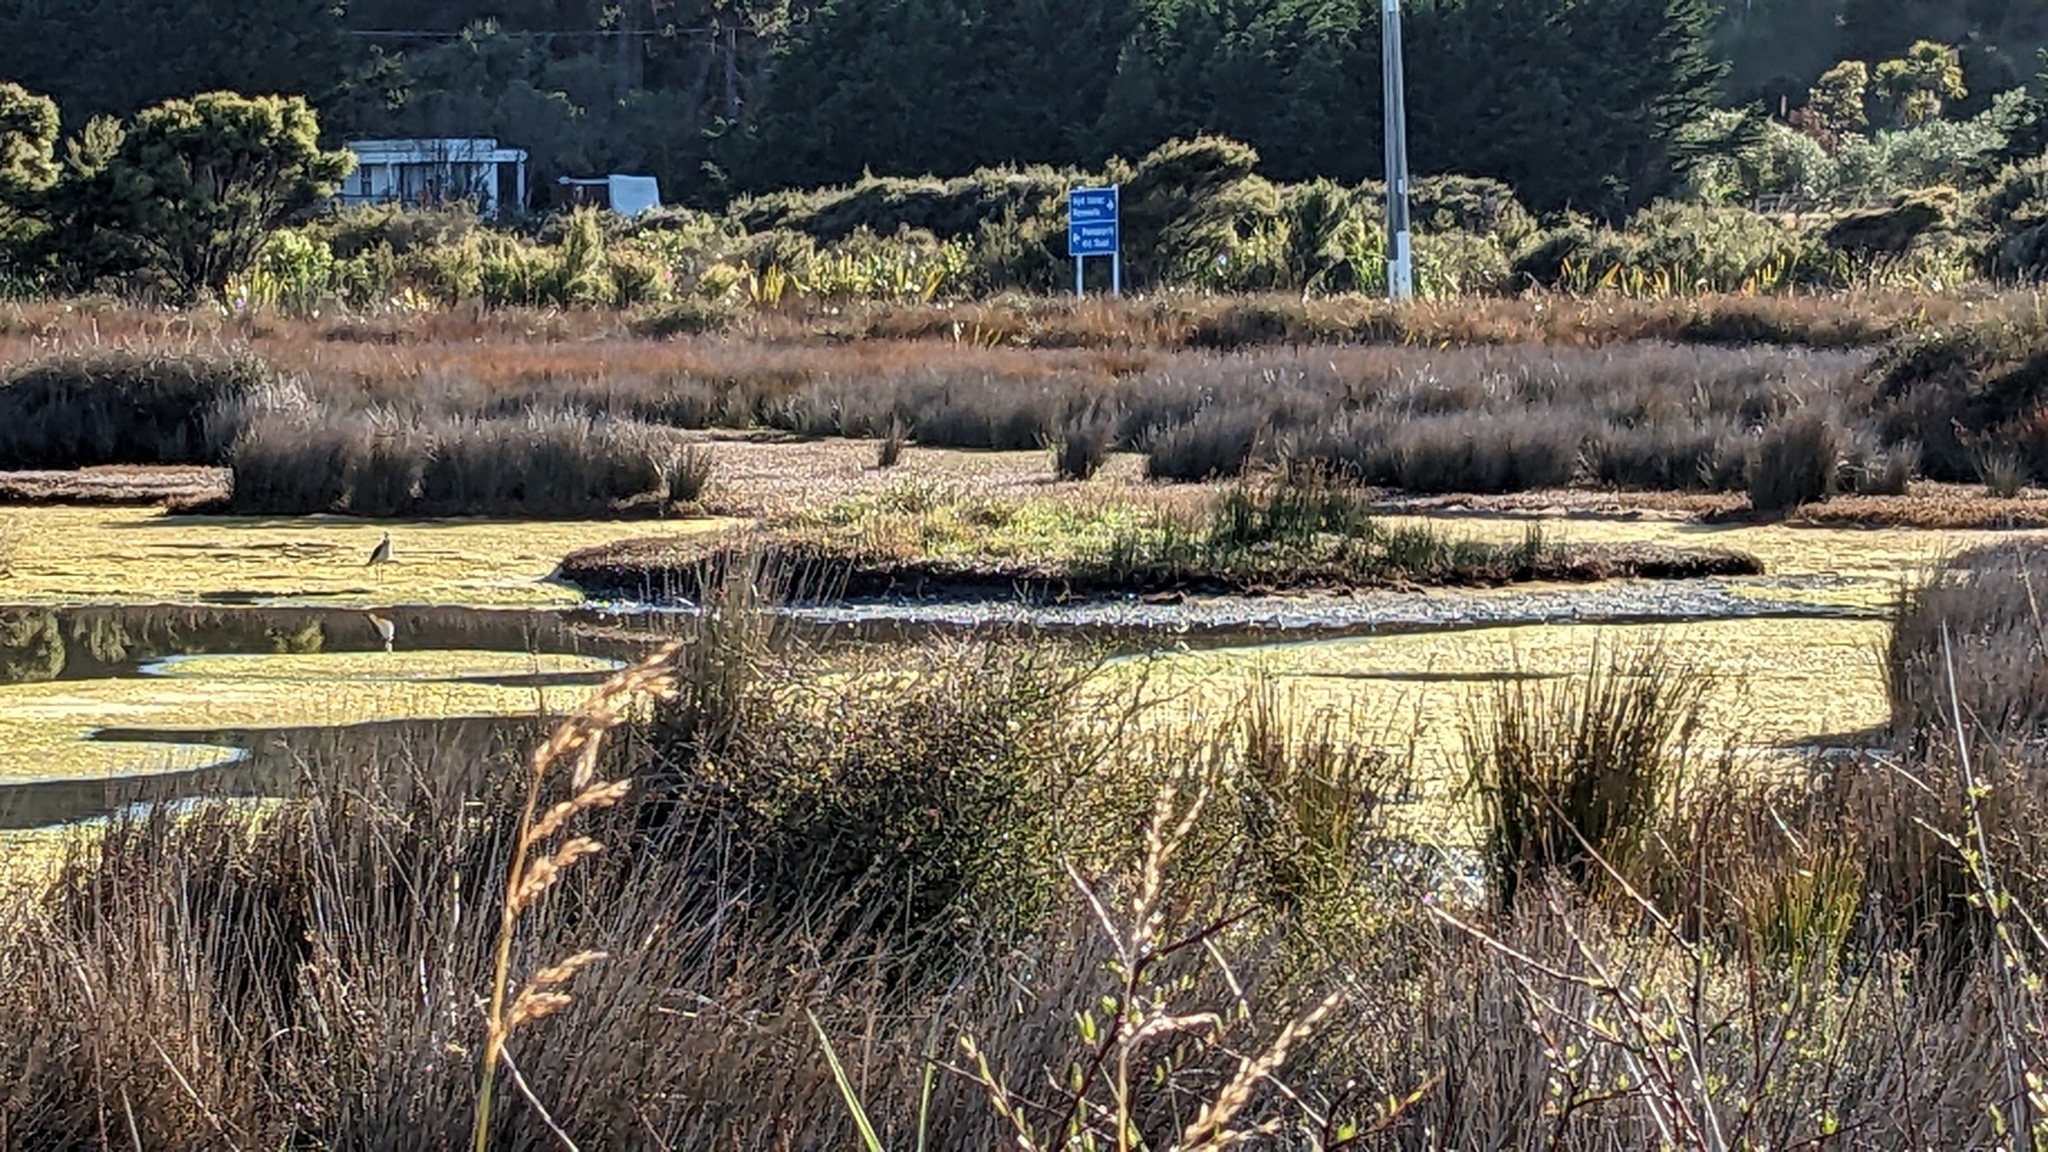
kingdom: Animalia
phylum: Chordata
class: Aves
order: Charadriiformes
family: Recurvirostridae
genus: Himantopus
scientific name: Himantopus leucocephalus
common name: White-headed stilt
